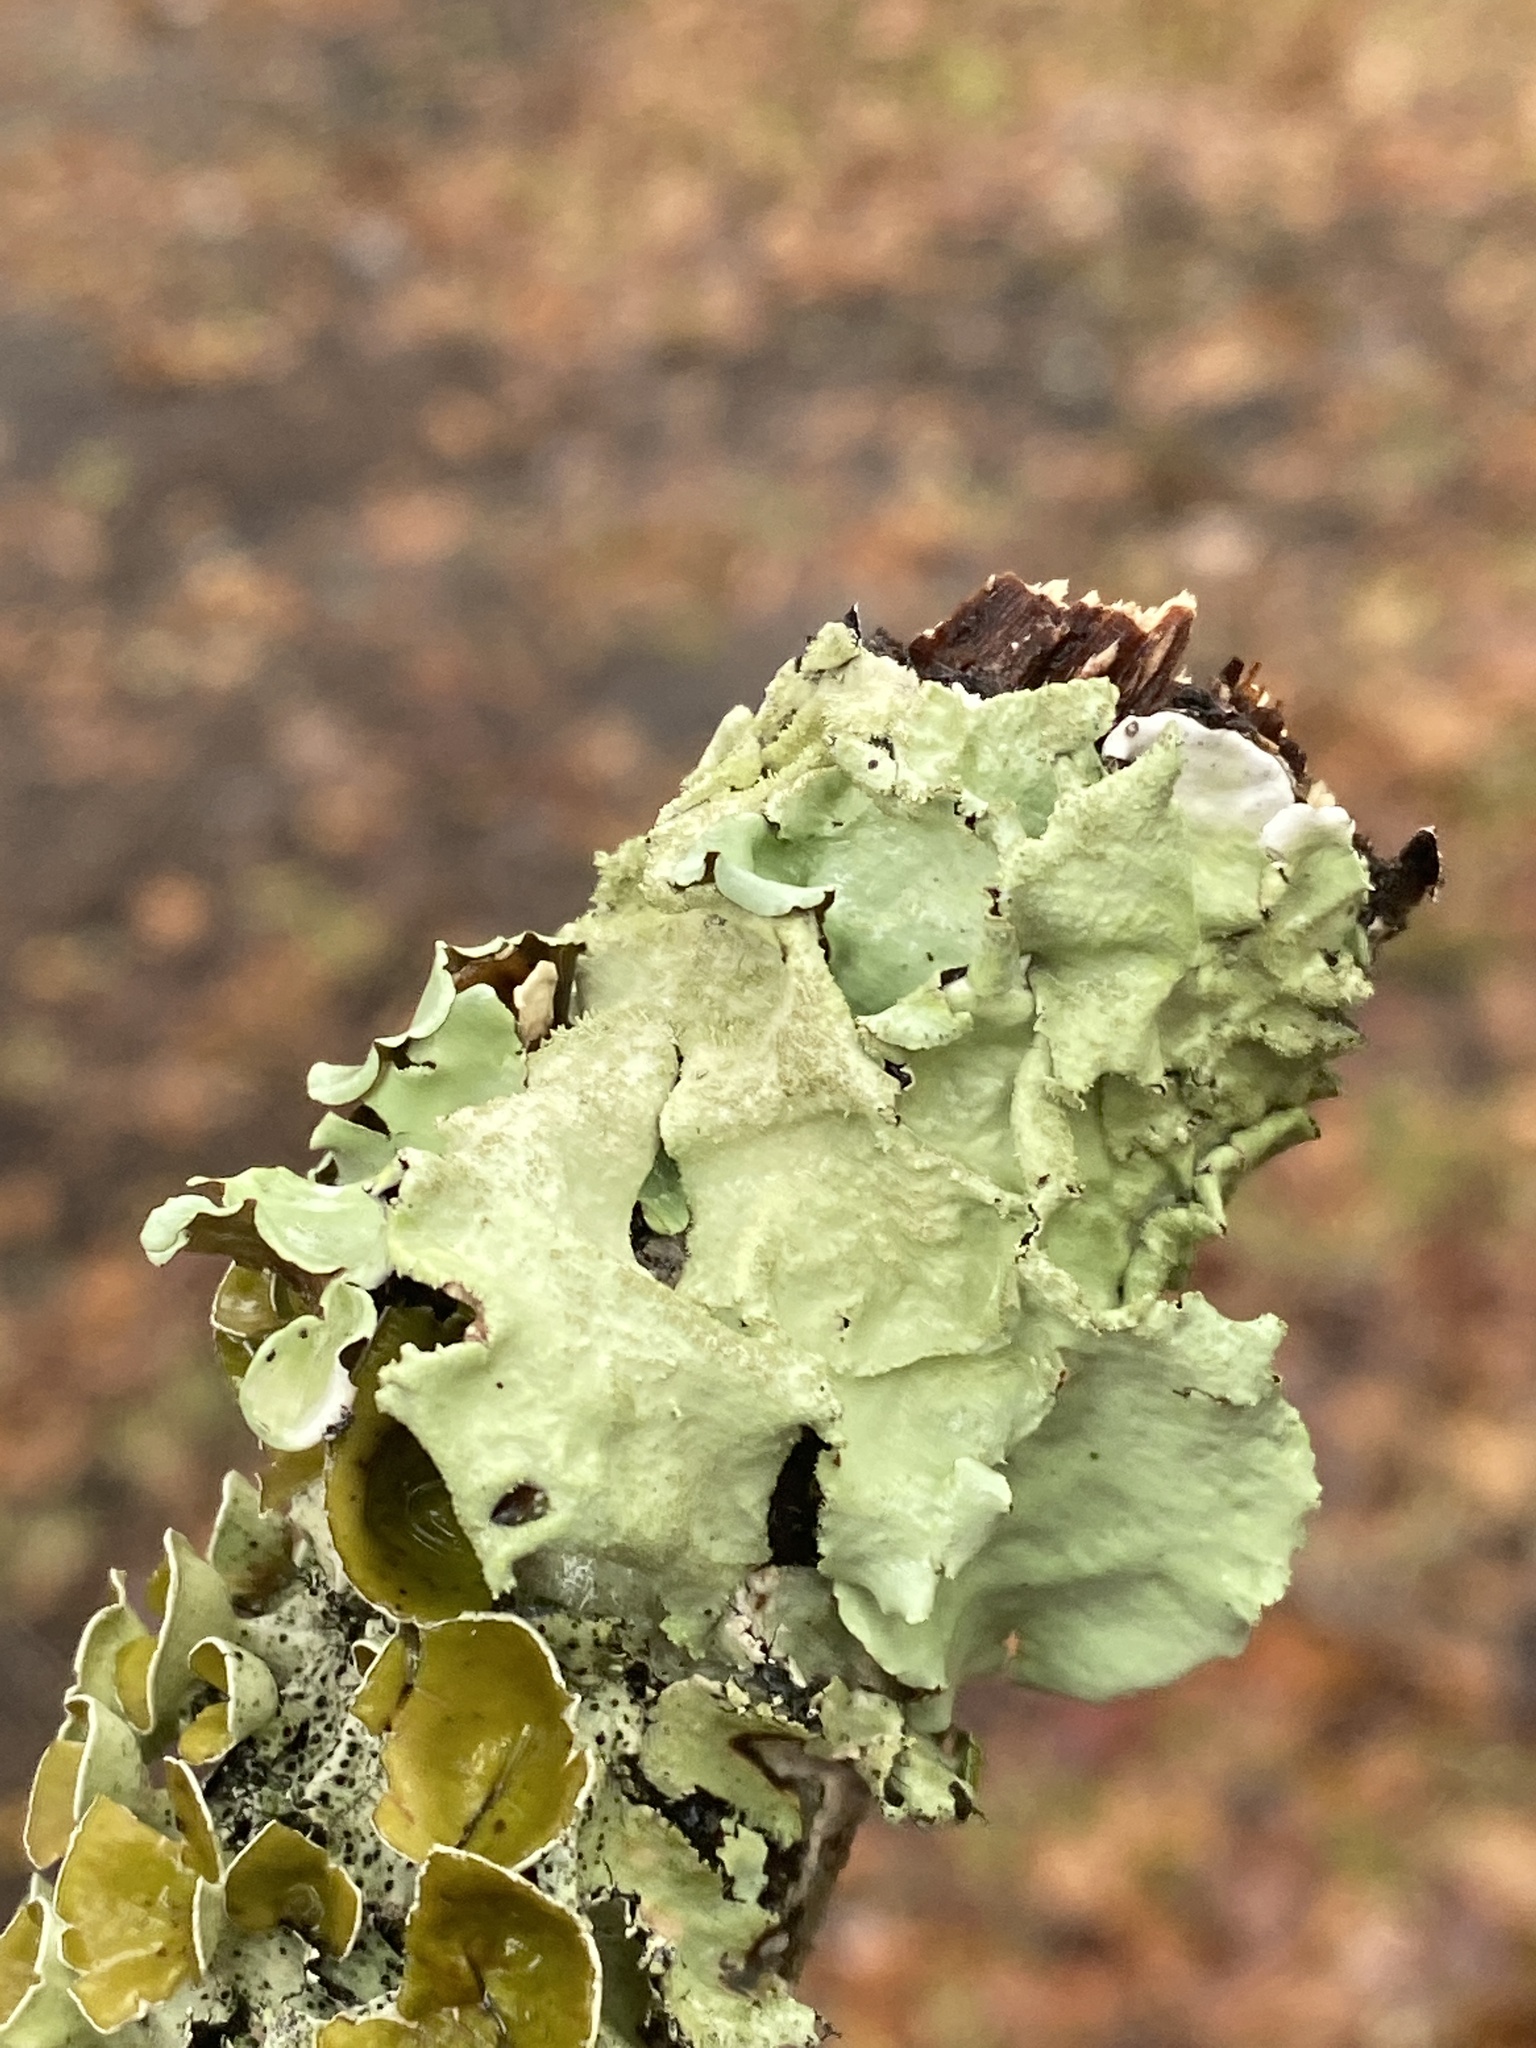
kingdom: Fungi
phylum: Ascomycota
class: Lecanoromycetes
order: Lecanorales
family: Parmeliaceae
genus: Parmotrema
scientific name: Parmotrema tinctorum
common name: Old gray ruffles
